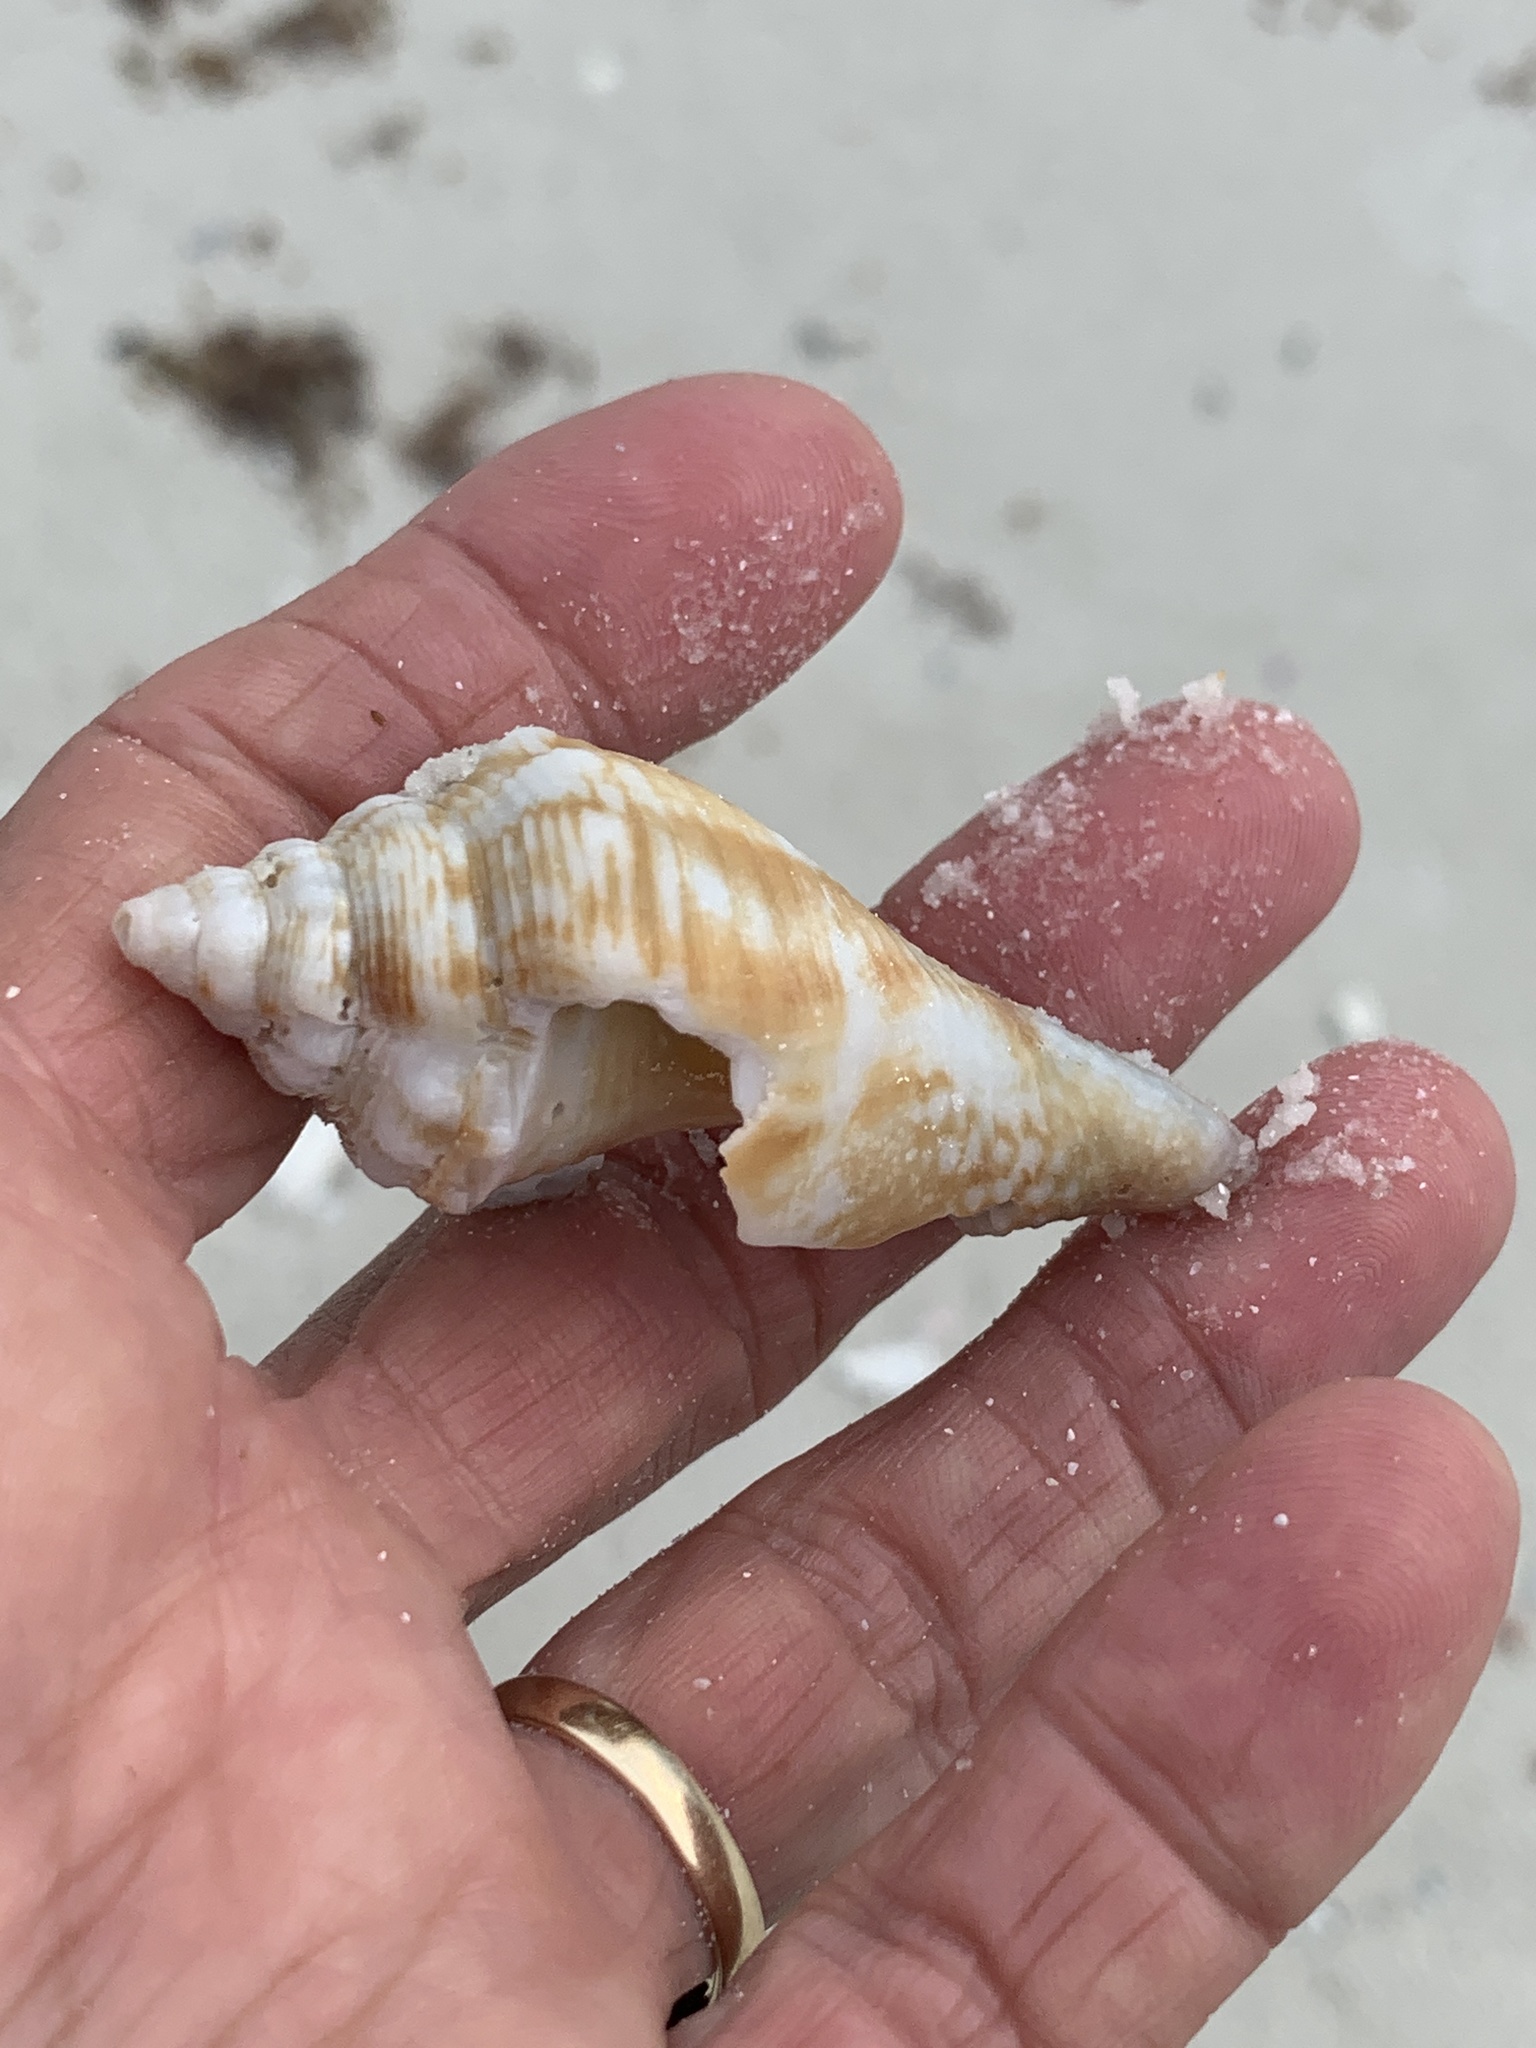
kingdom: Animalia
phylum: Mollusca
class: Gastropoda
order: Littorinimorpha
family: Strombidae
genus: Strombus
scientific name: Strombus alatus
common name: Florida fighting conch
